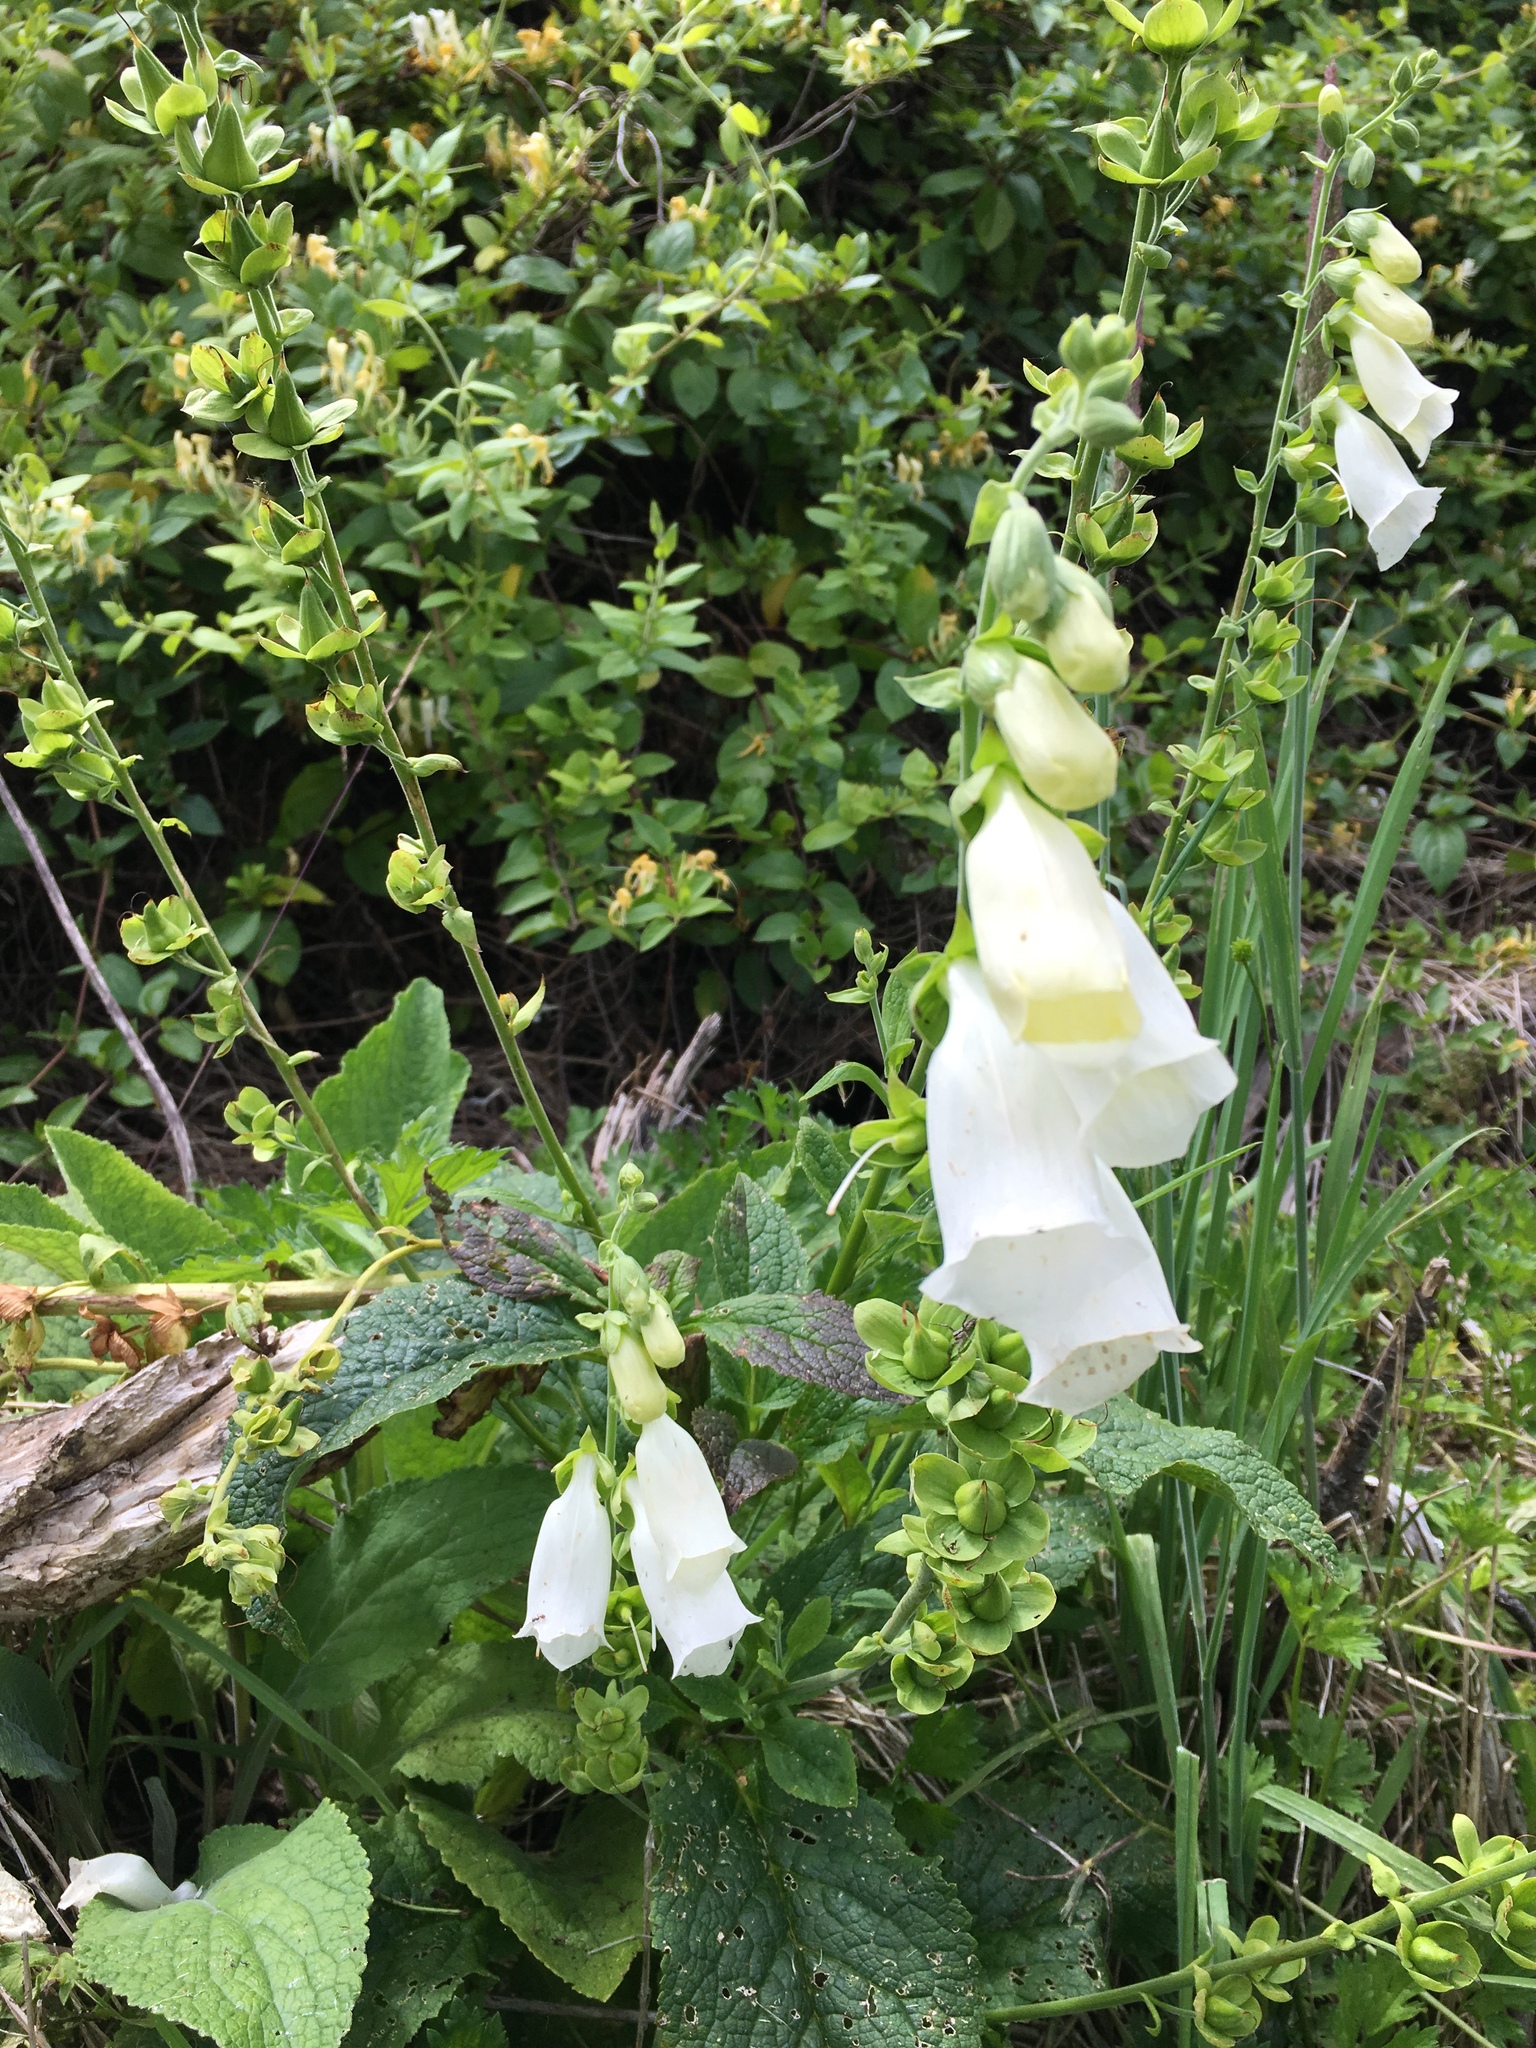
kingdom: Plantae
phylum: Tracheophyta
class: Magnoliopsida
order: Lamiales
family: Plantaginaceae
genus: Digitalis
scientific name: Digitalis purpurea
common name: Foxglove
